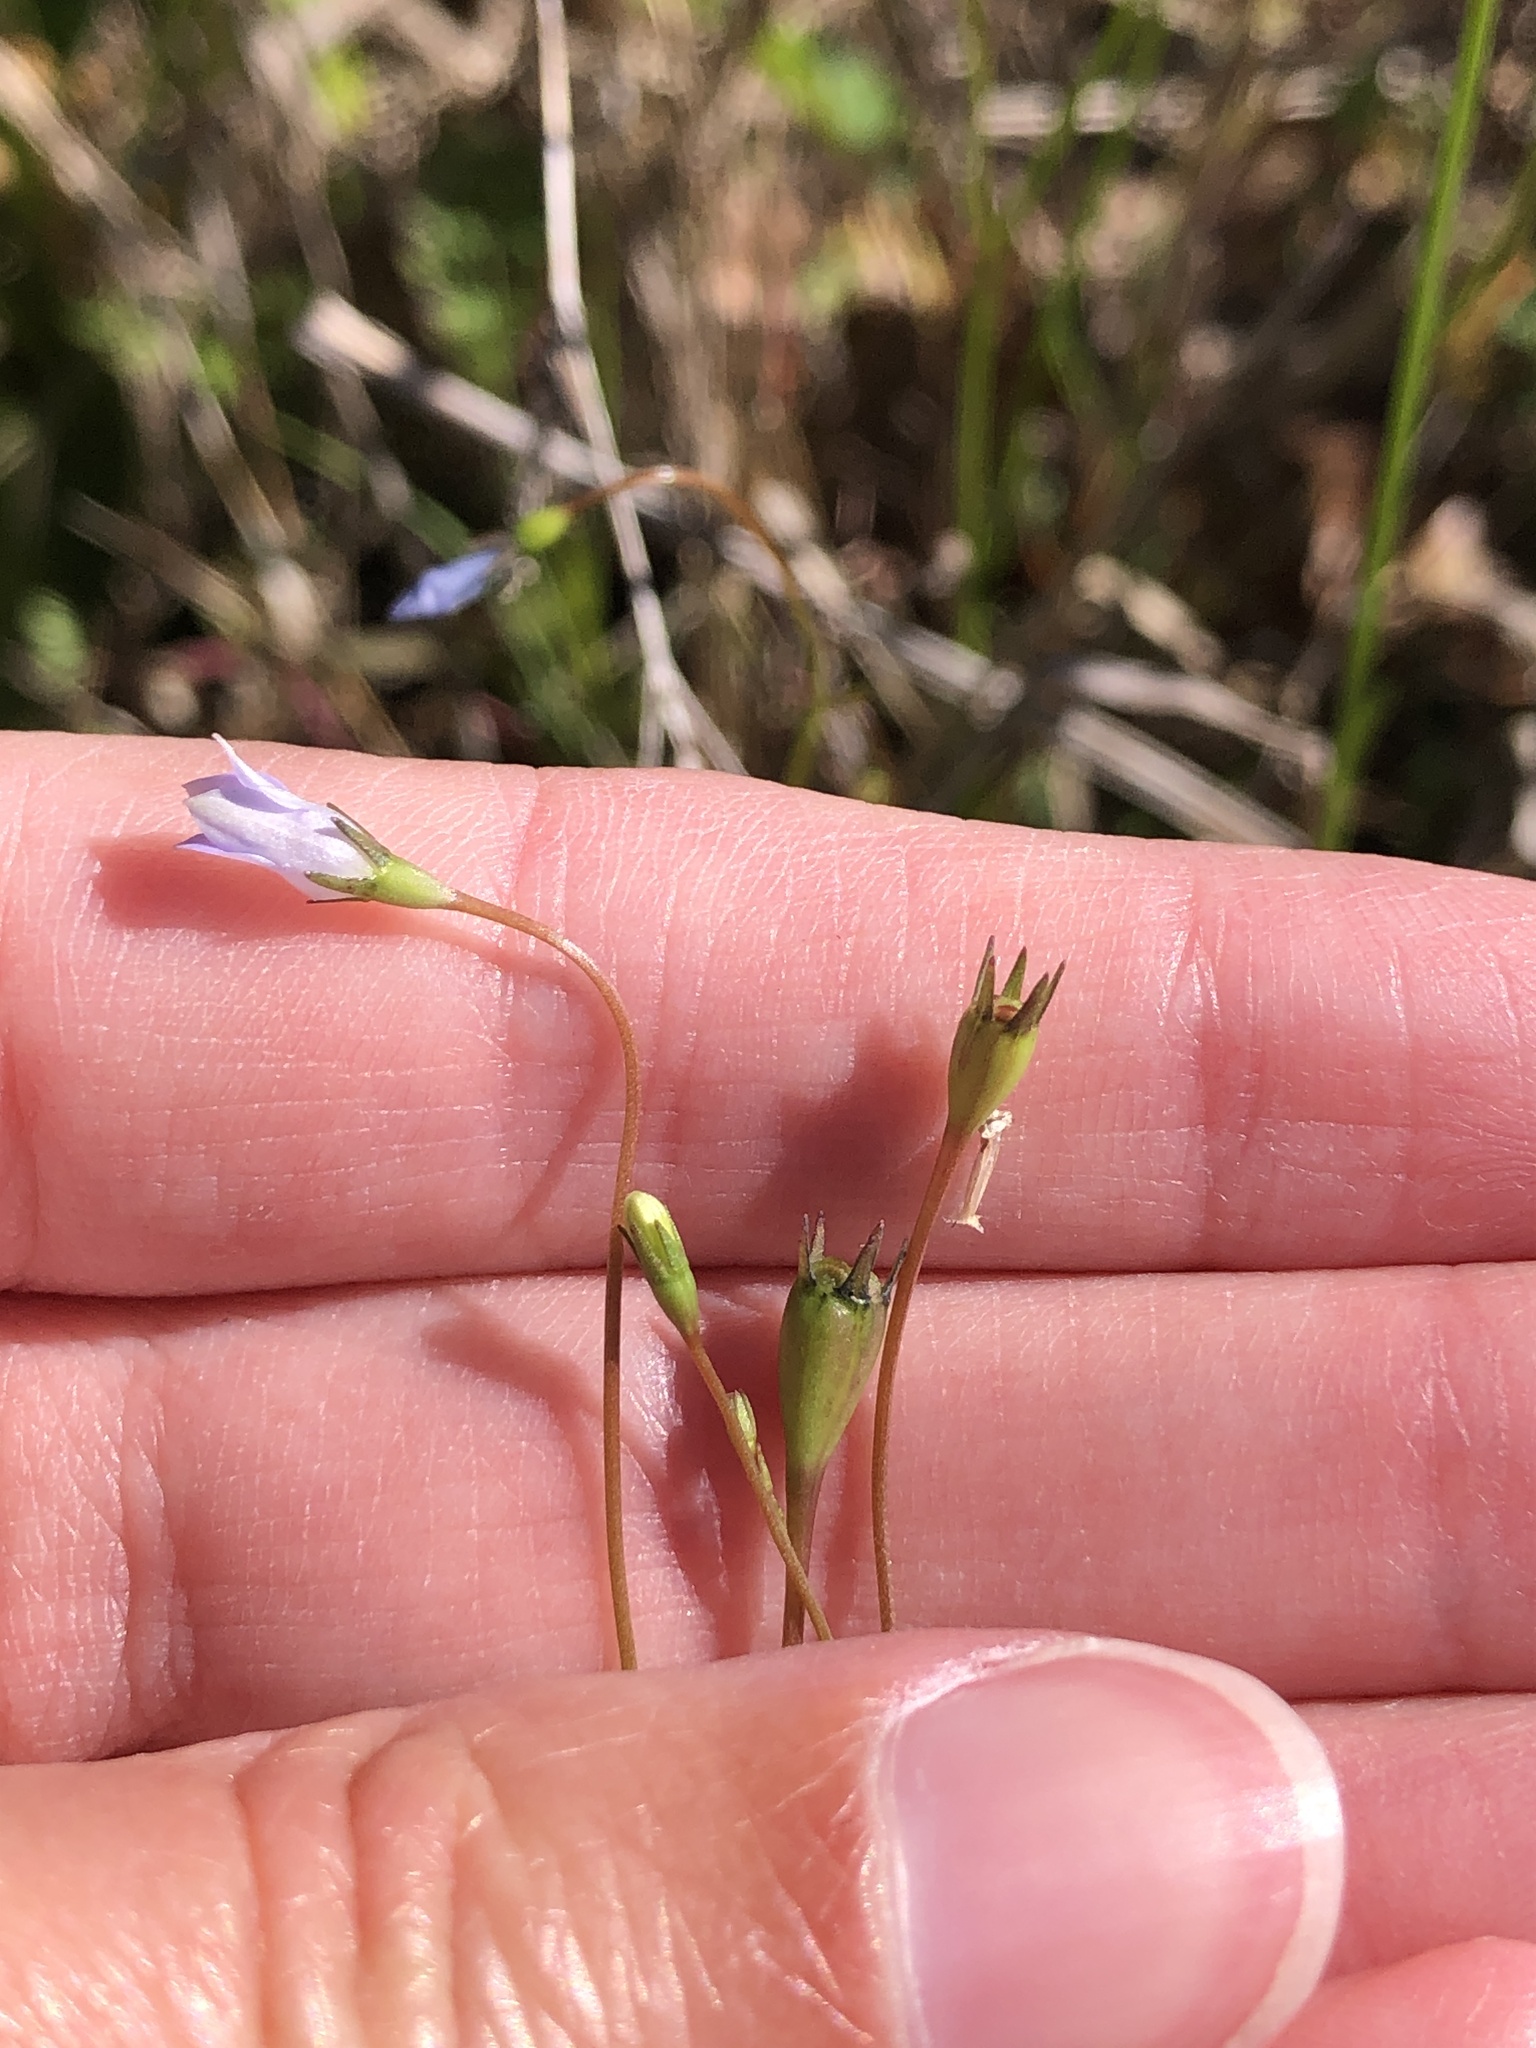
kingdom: Plantae
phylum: Tracheophyta
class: Magnoliopsida
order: Asterales
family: Campanulaceae
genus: Wahlenbergia
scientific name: Wahlenbergia marginata
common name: Southern rockbell
